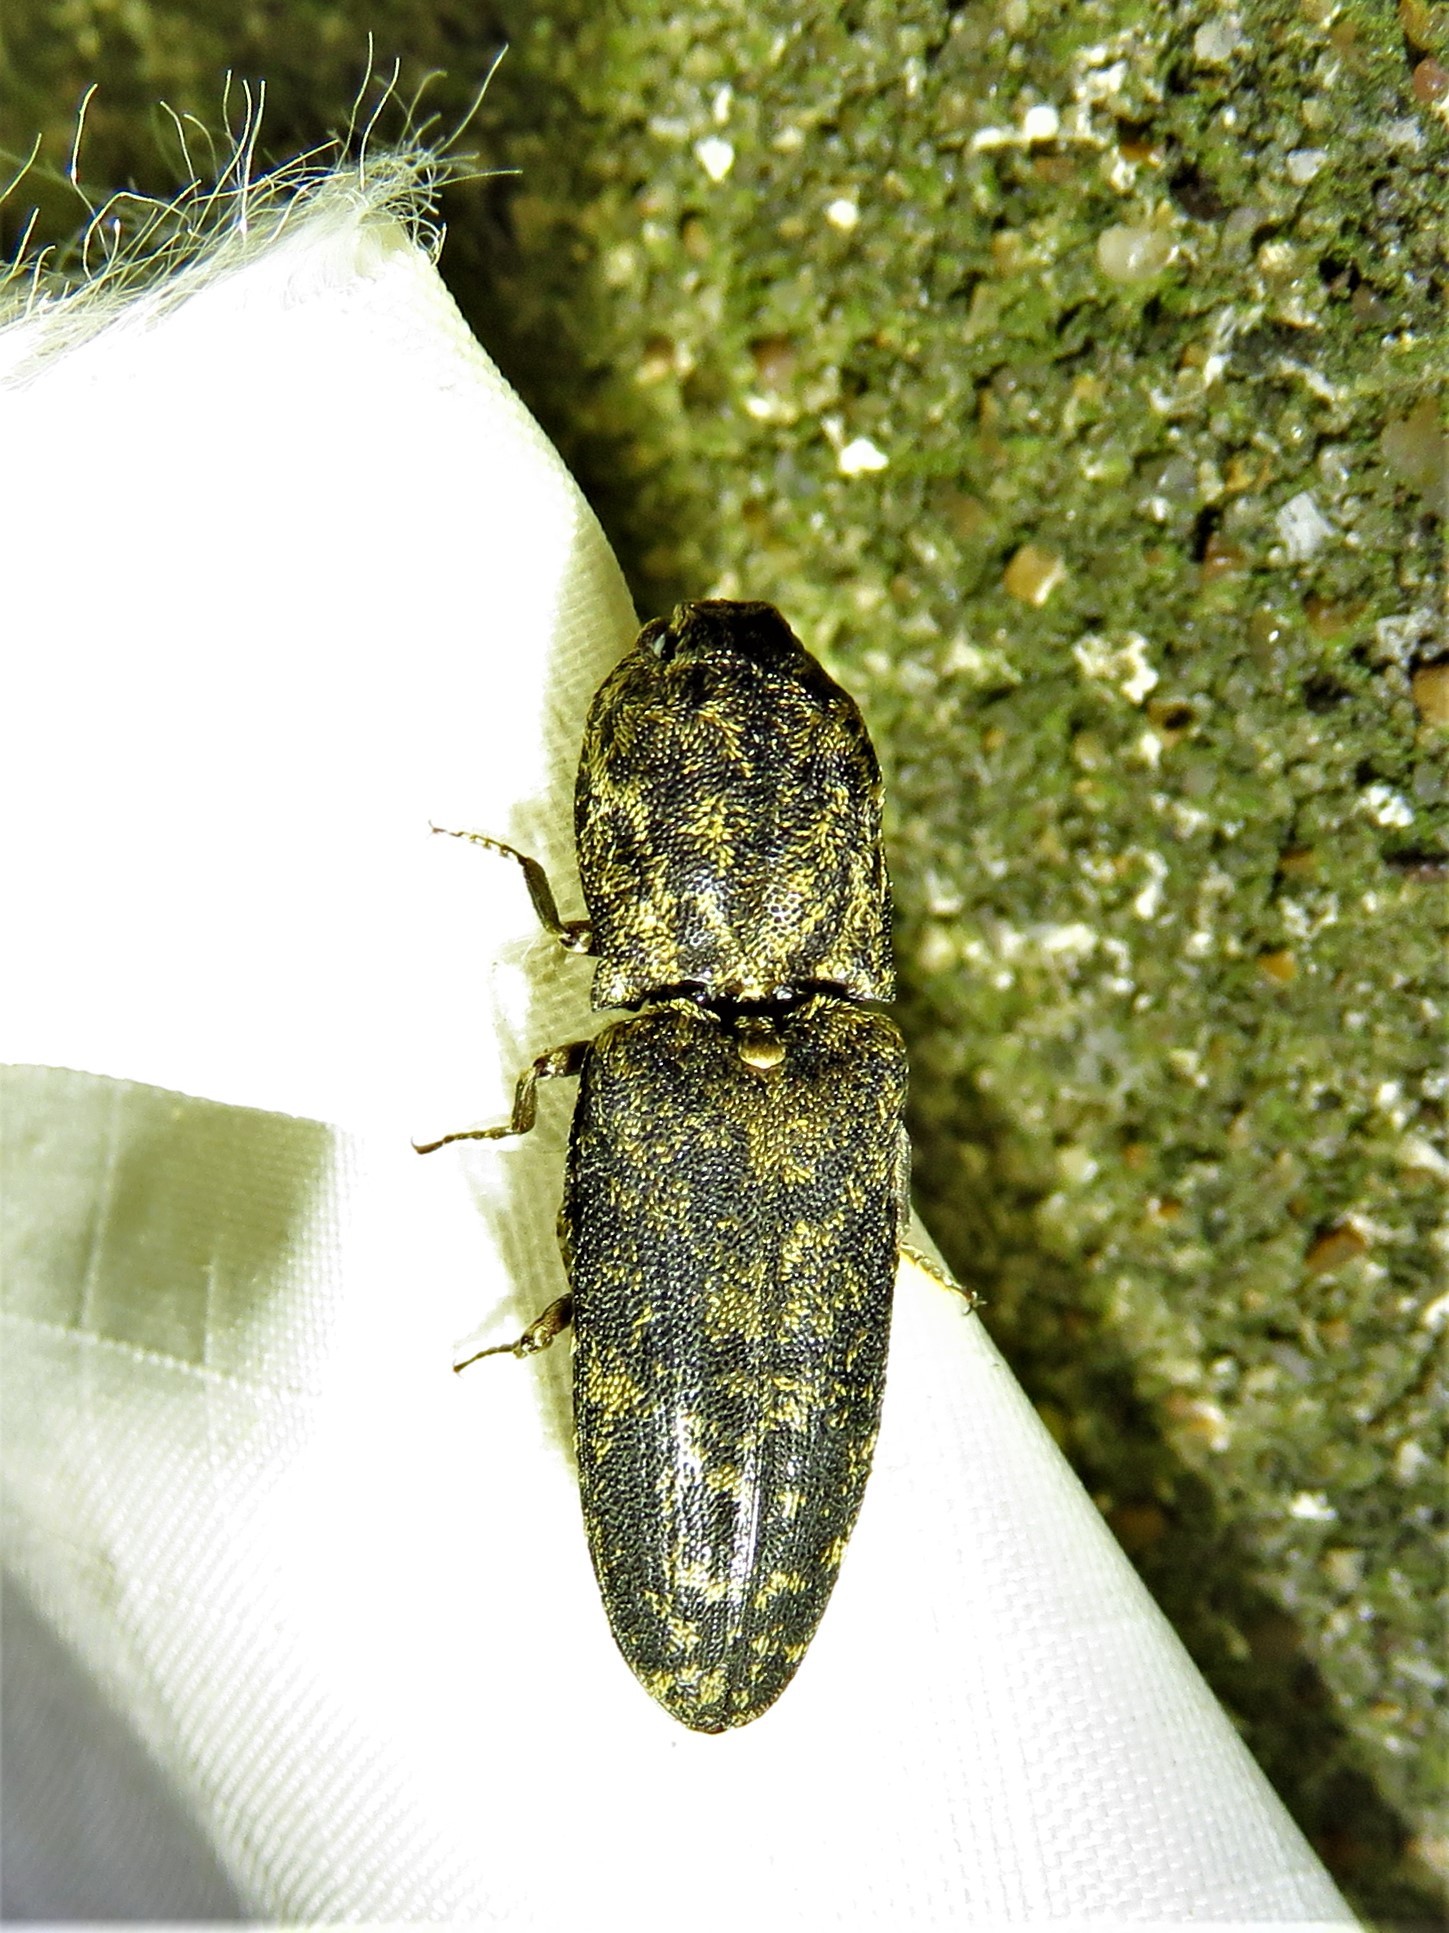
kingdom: Animalia
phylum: Arthropoda
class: Insecta
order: Coleoptera
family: Elateridae
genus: Lacon
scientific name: Lacon marmoratus
